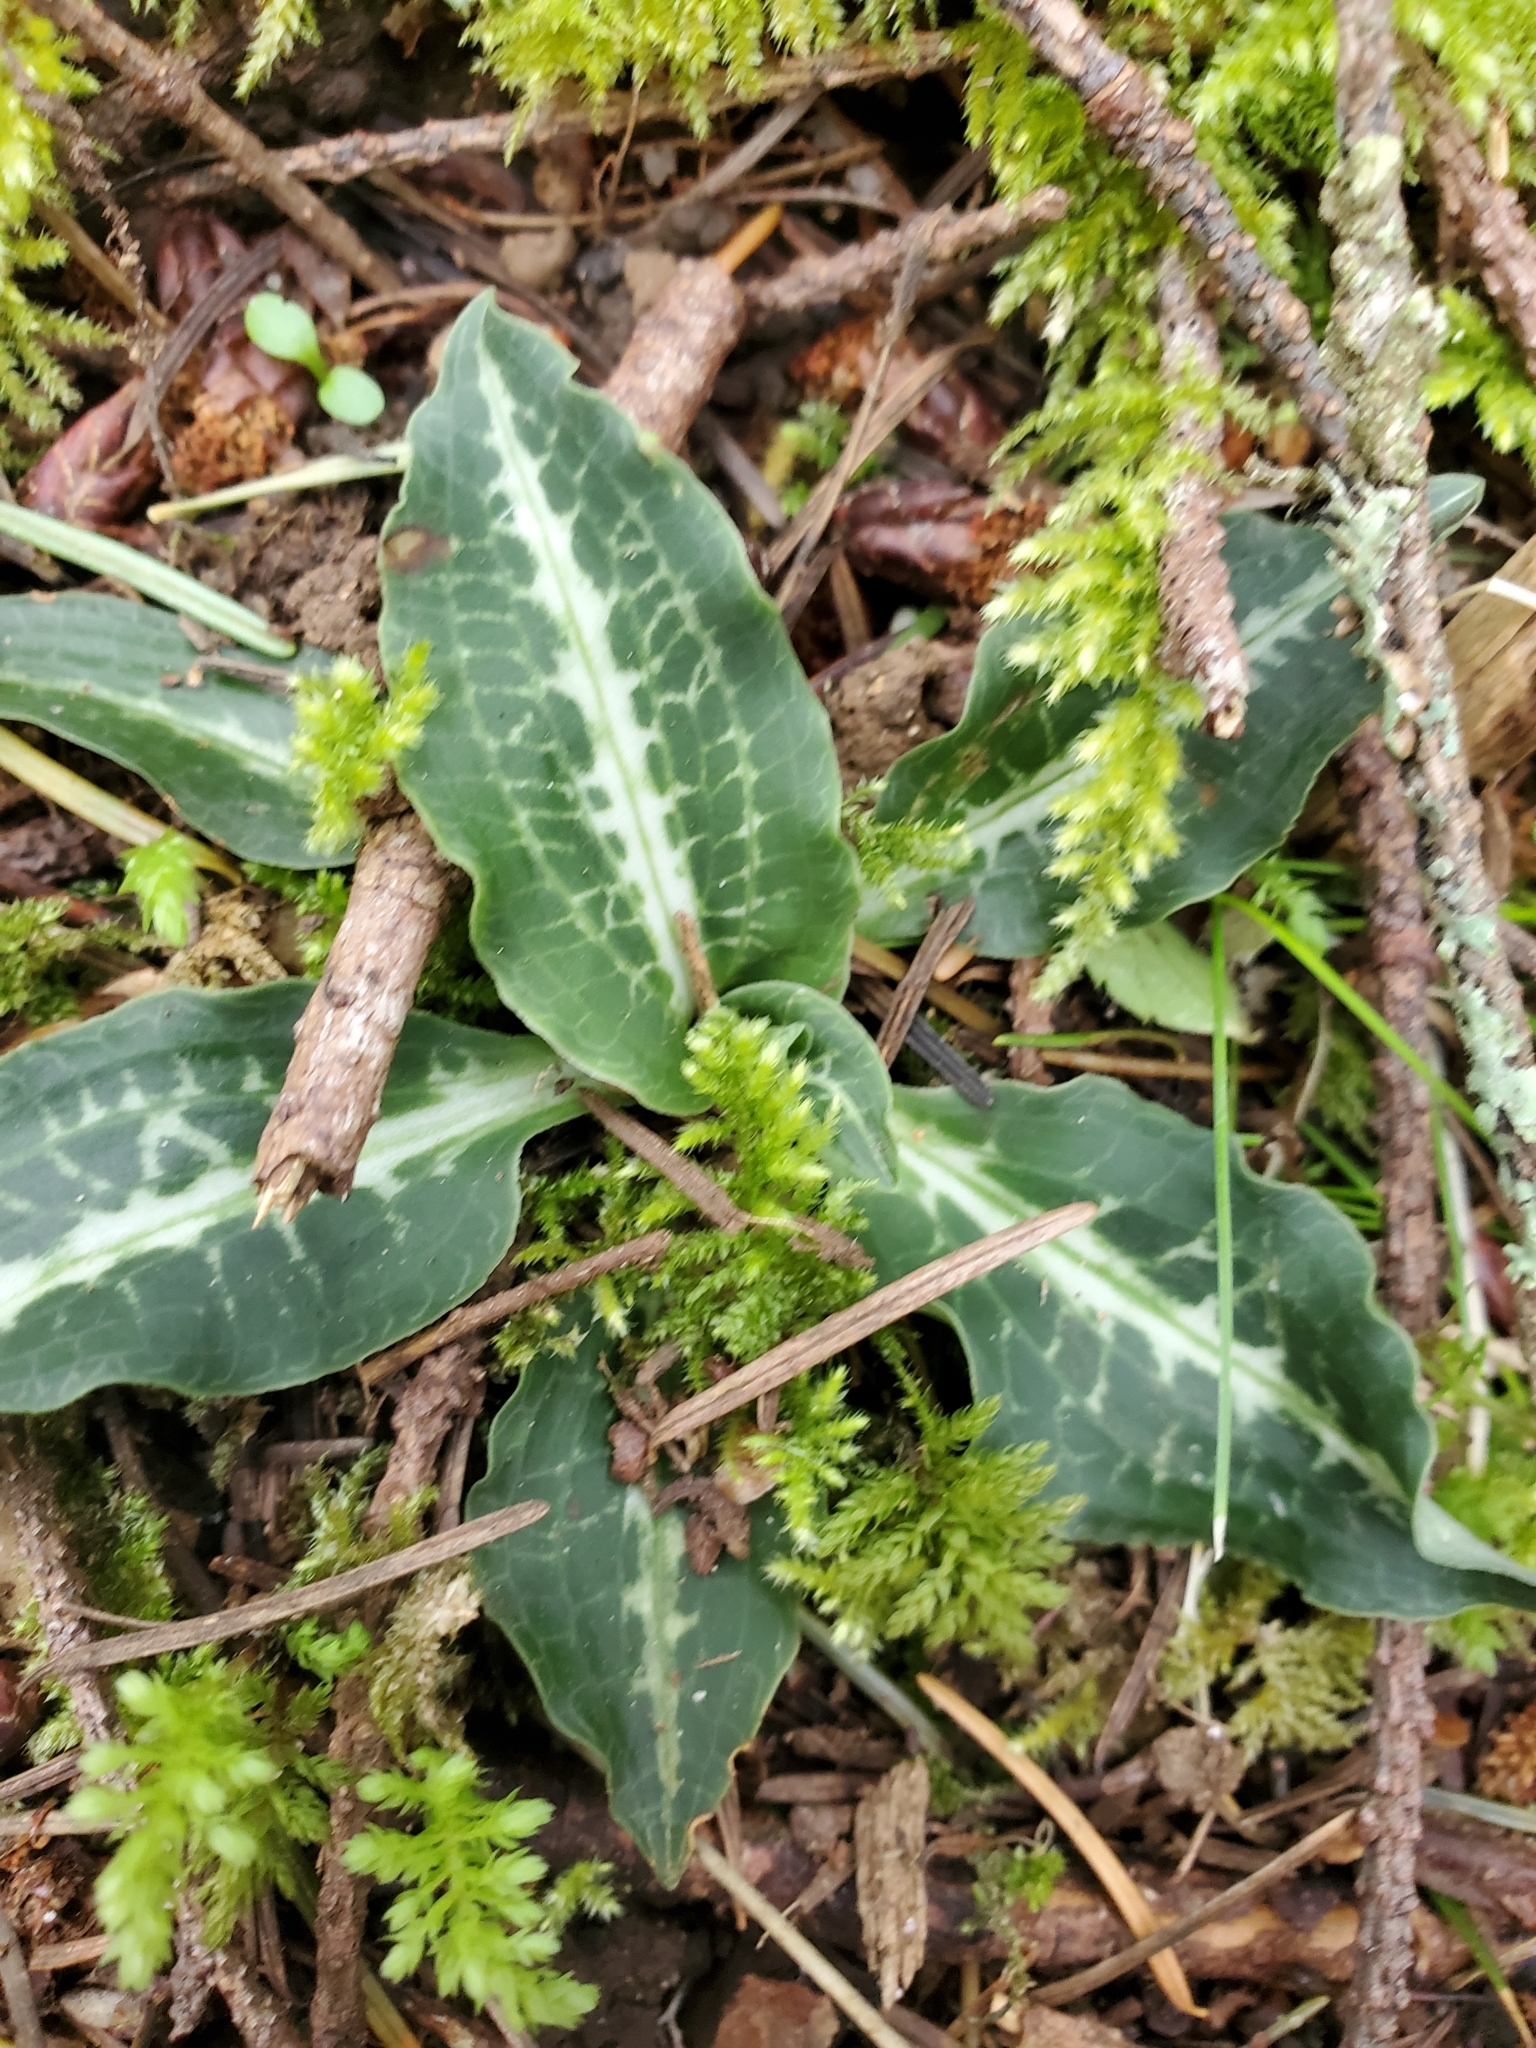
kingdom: Plantae
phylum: Tracheophyta
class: Liliopsida
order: Asparagales
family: Orchidaceae
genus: Goodyera
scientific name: Goodyera oblongifolia
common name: Giant rattlesnake-plantain
